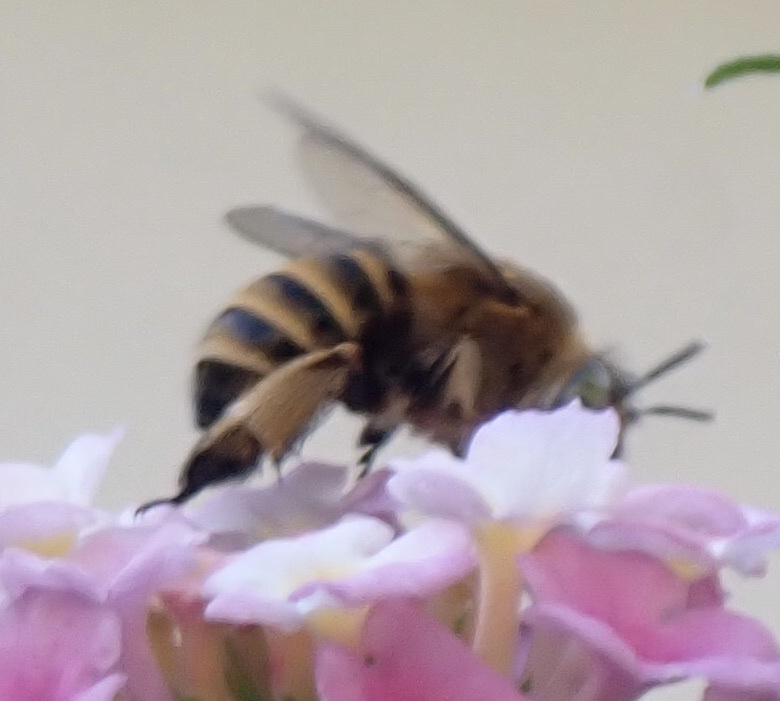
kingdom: Animalia
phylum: Arthropoda
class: Insecta
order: Hymenoptera
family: Apidae
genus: Amegilla
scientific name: Amegilla garrula
